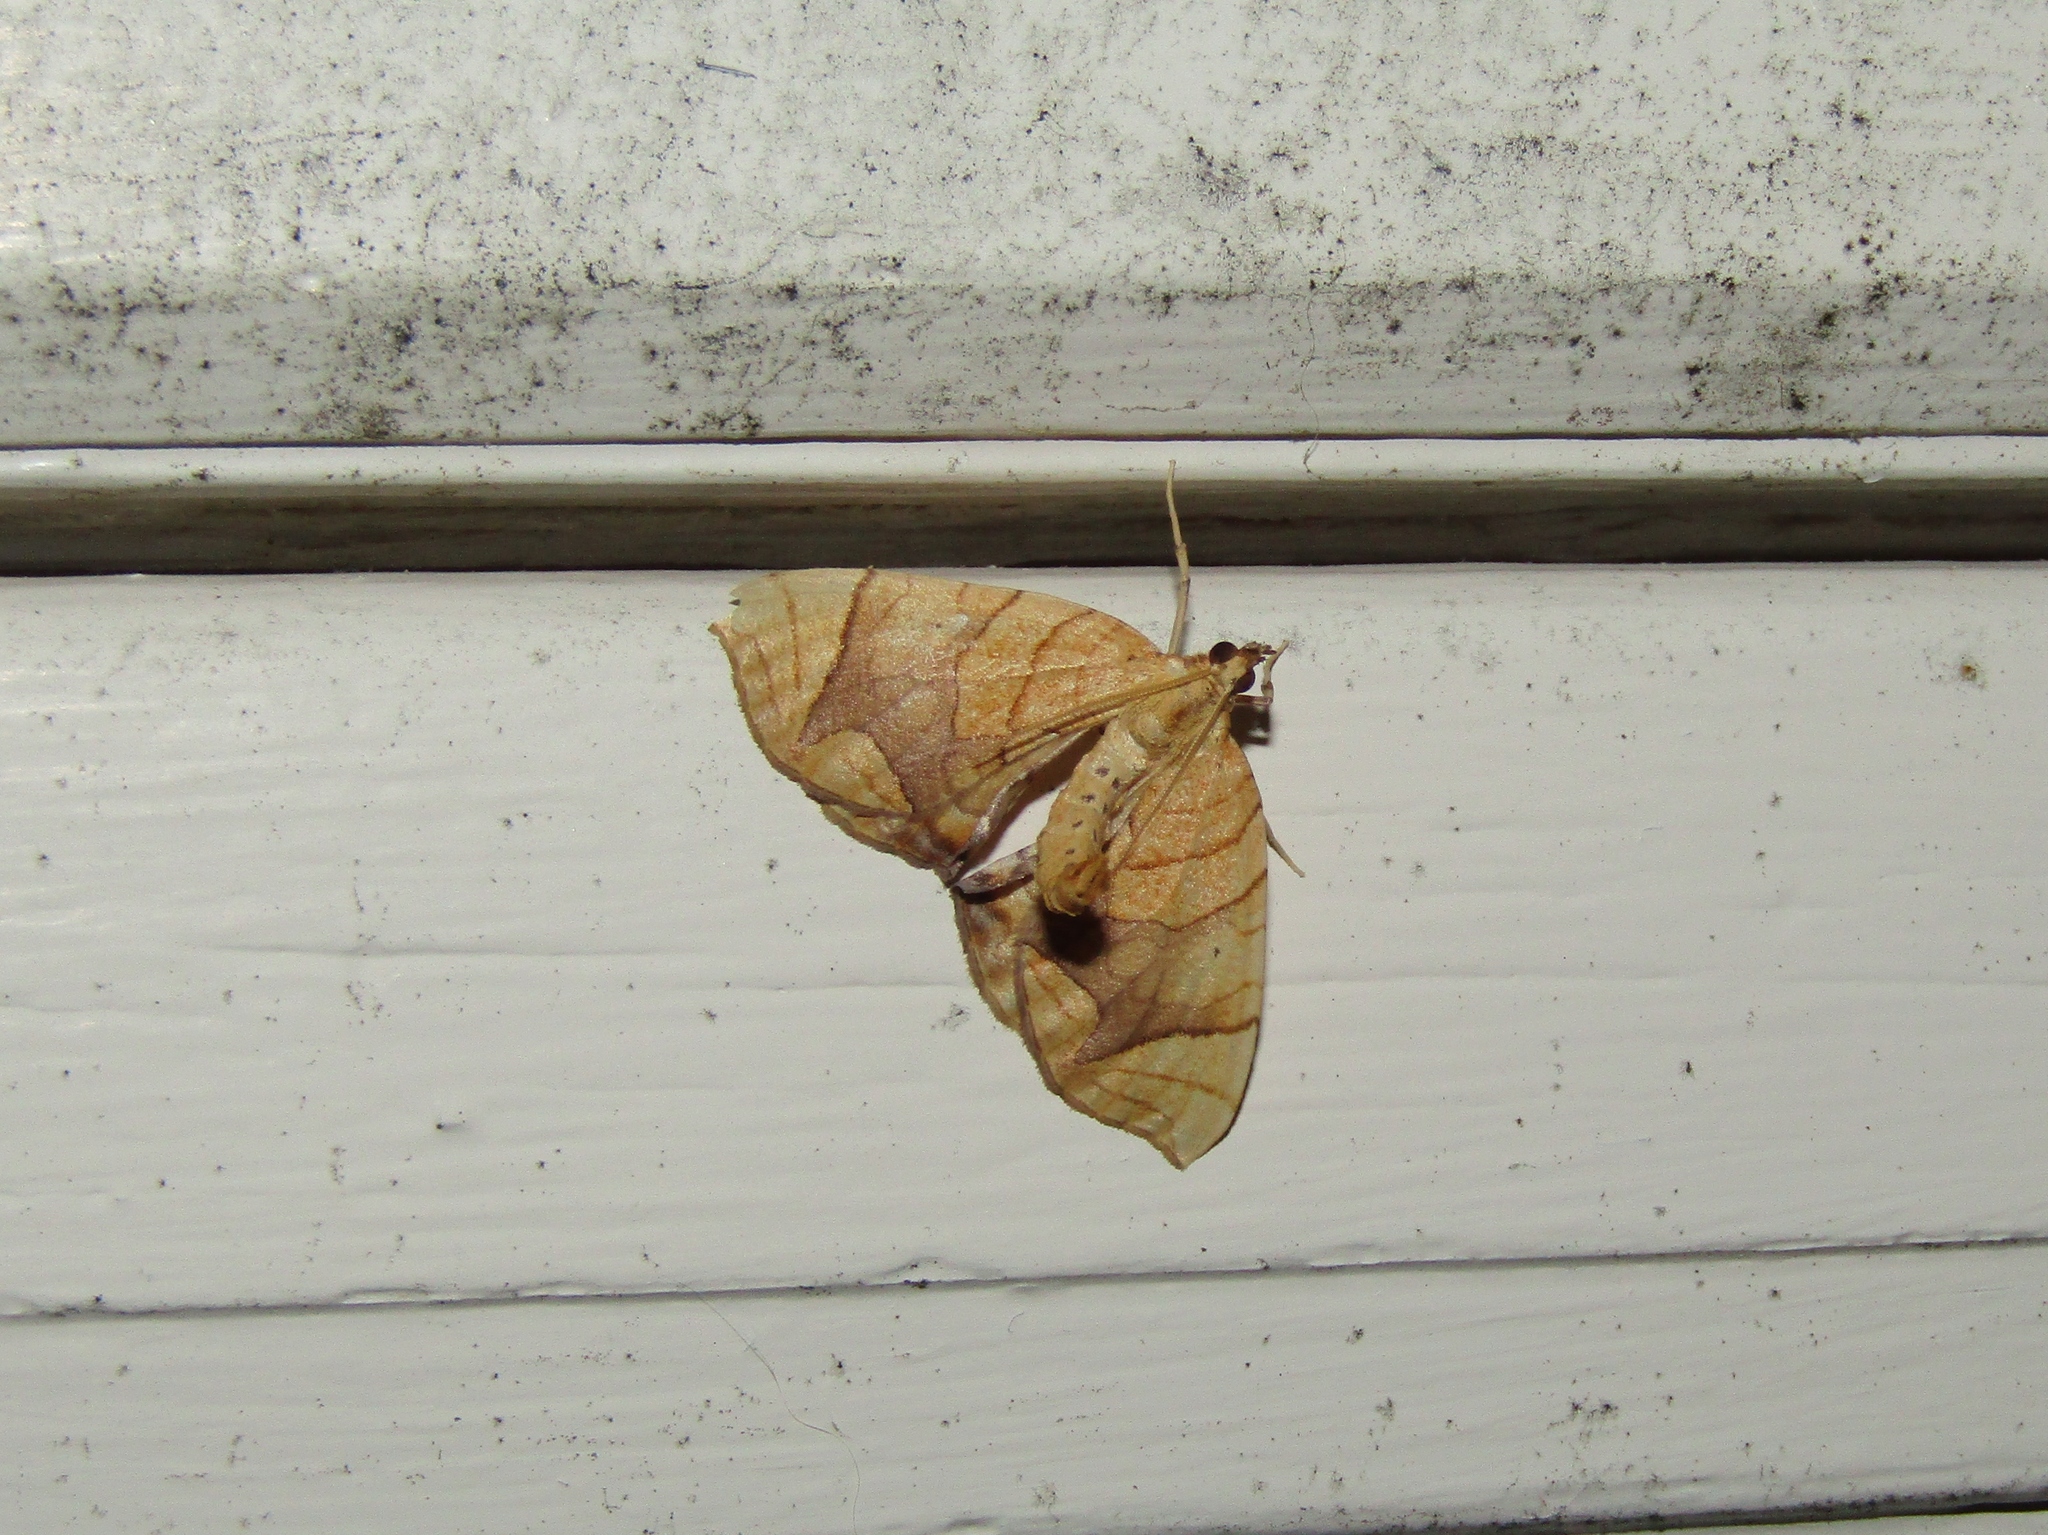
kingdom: Animalia
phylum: Arthropoda
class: Insecta
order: Lepidoptera
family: Geometridae
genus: Eulithis
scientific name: Eulithis
